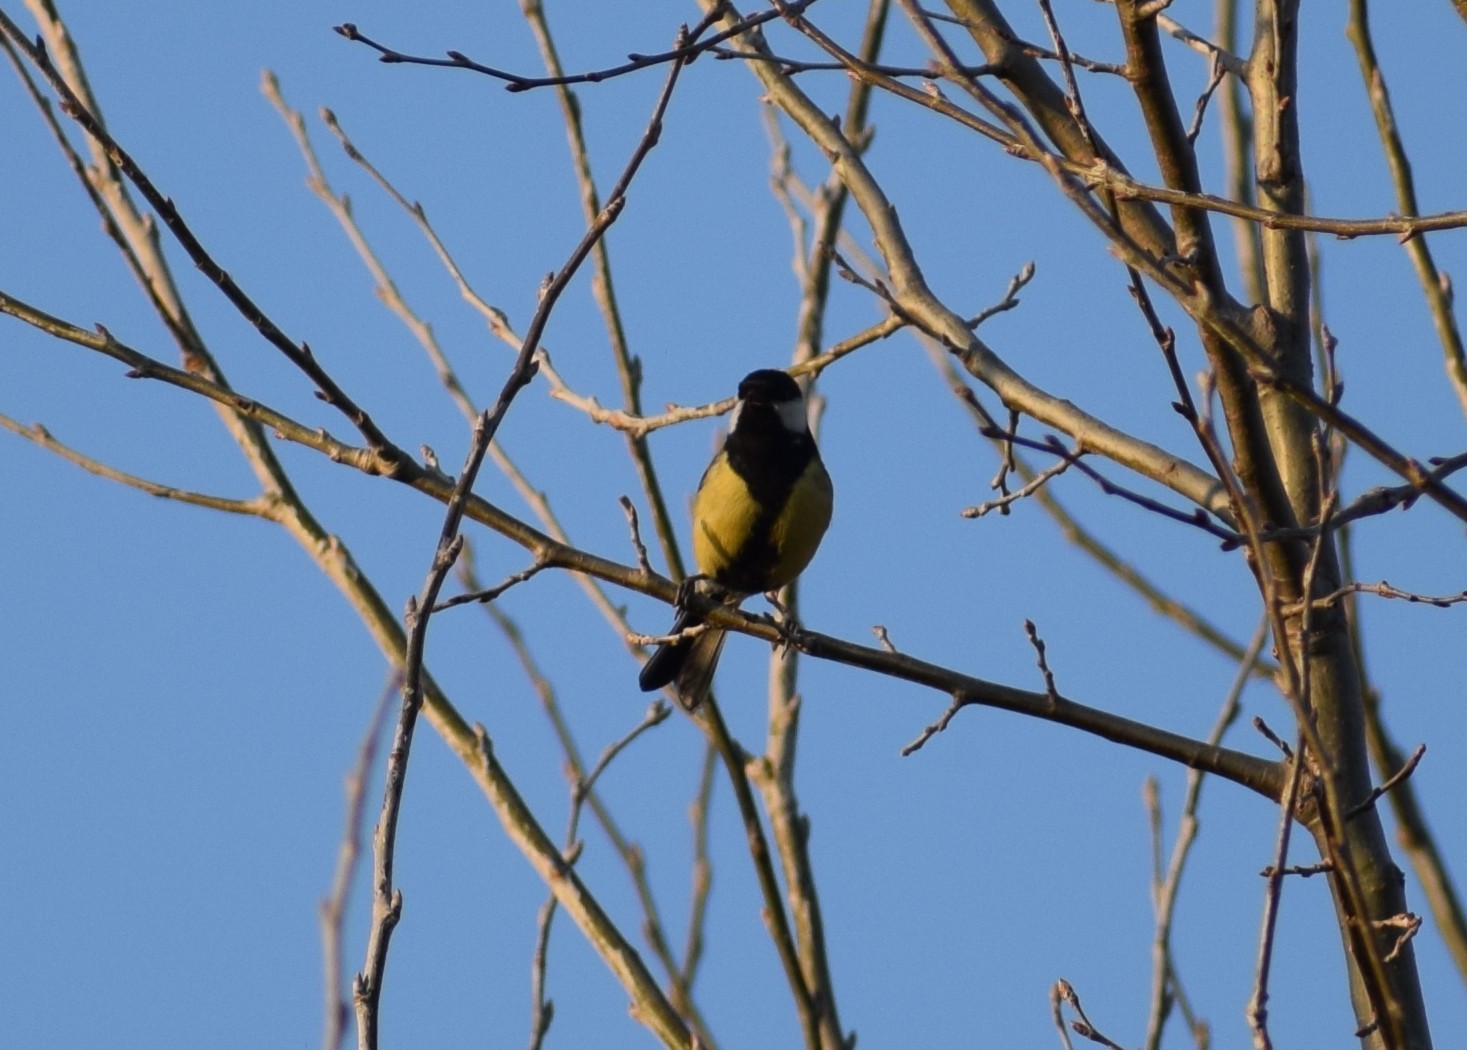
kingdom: Animalia
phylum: Chordata
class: Aves
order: Passeriformes
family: Paridae
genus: Parus
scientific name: Parus major
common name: Great tit
